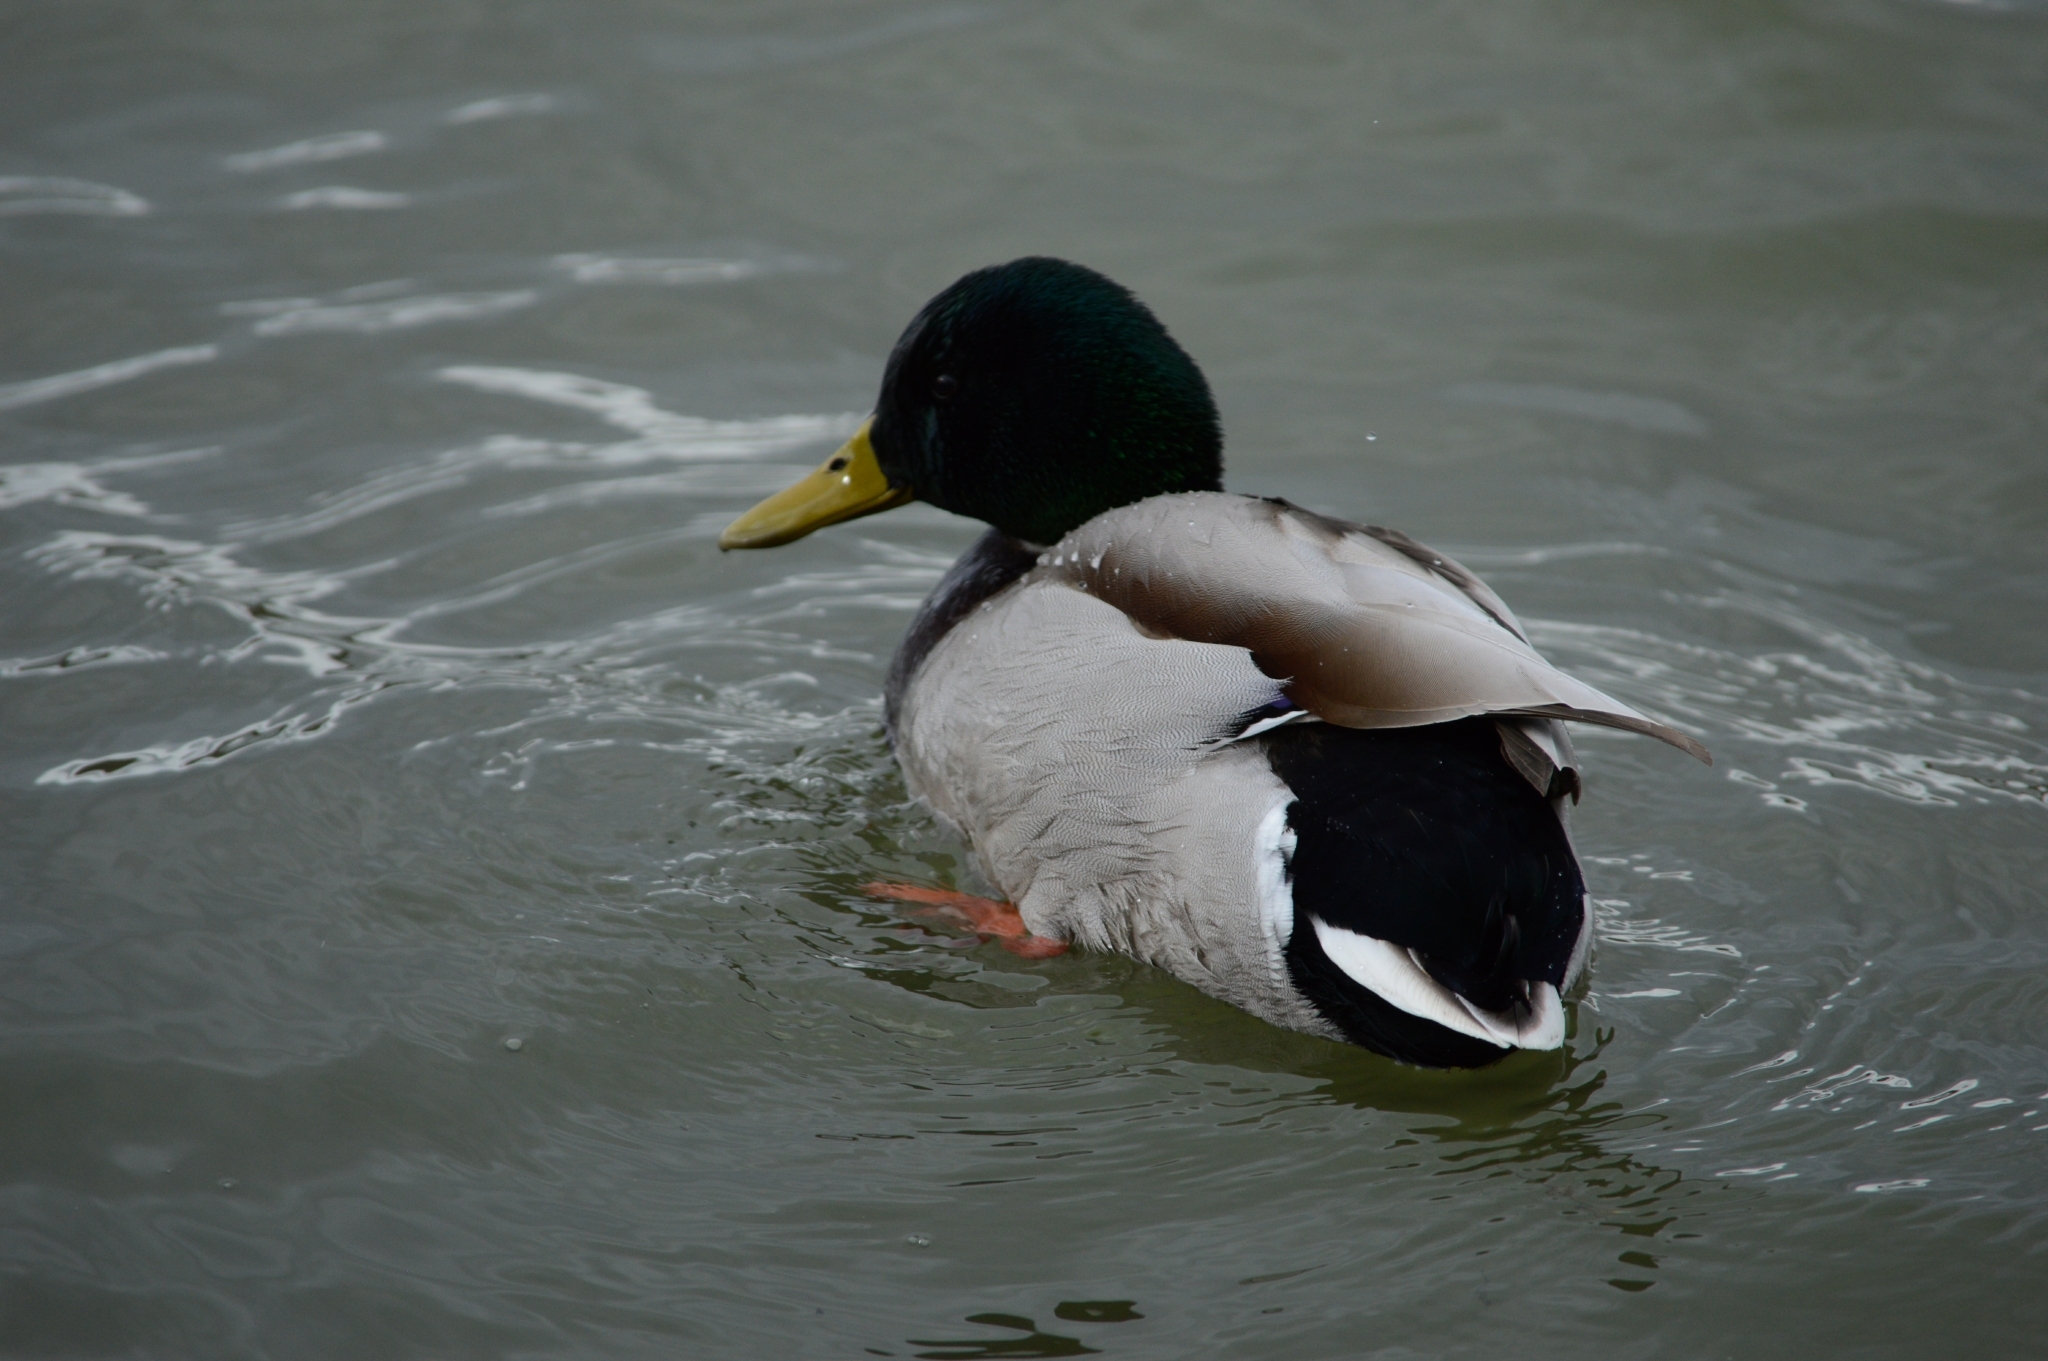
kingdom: Animalia
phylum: Chordata
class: Aves
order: Anseriformes
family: Anatidae
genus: Anas
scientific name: Anas platyrhynchos
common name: Mallard
